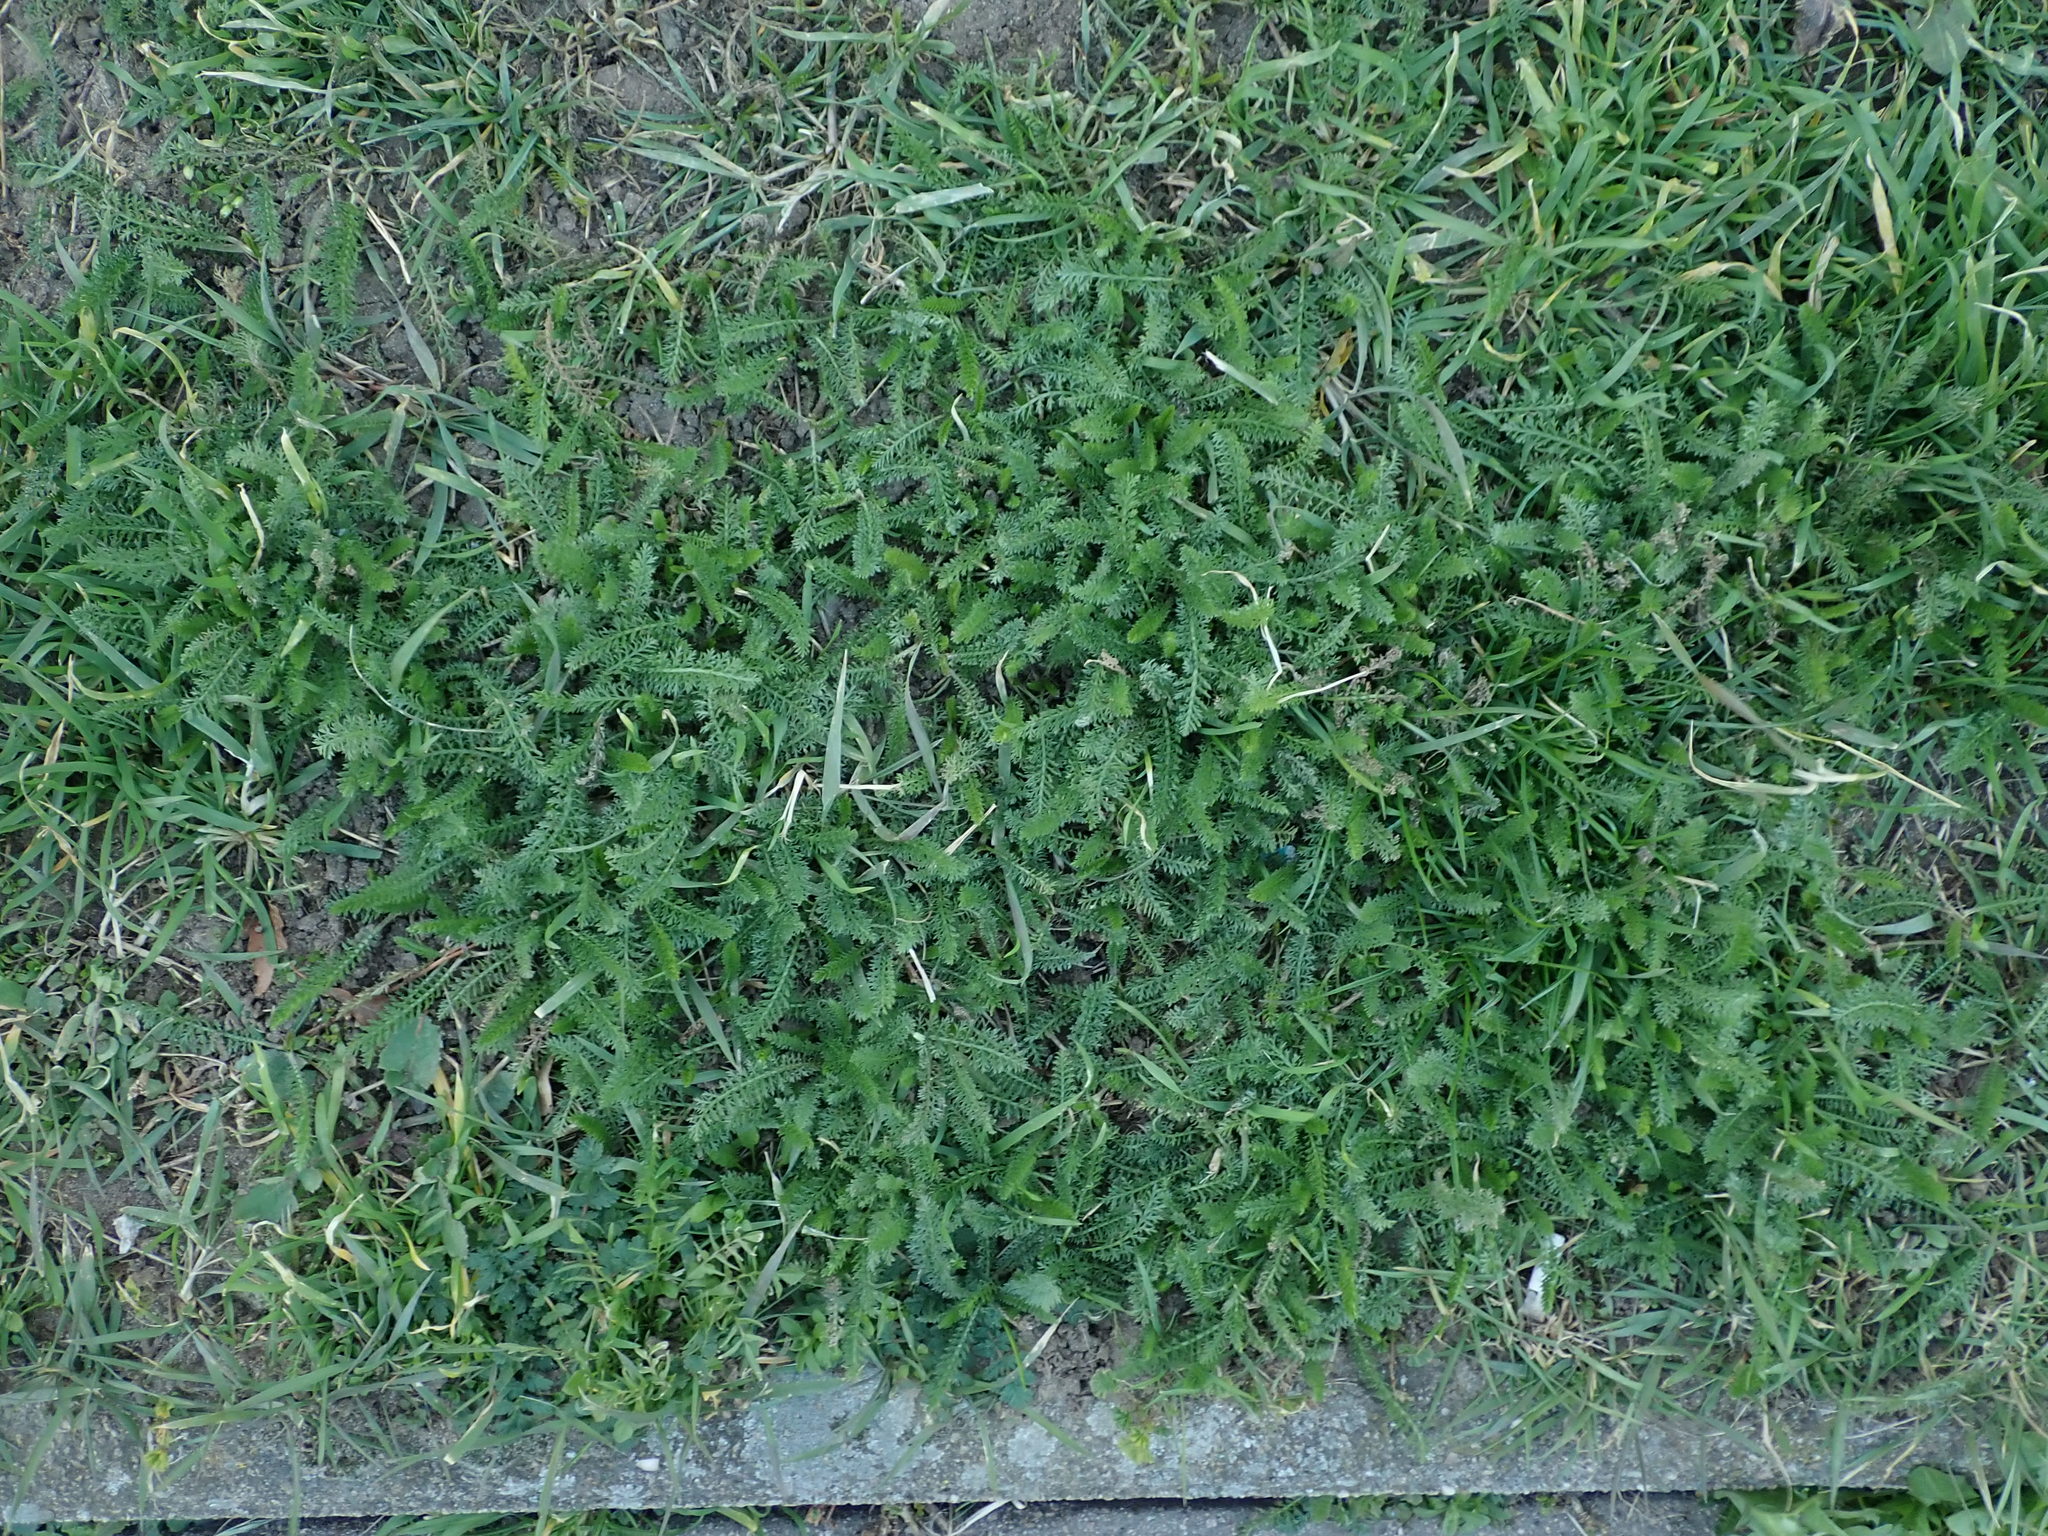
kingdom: Plantae
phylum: Tracheophyta
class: Magnoliopsida
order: Asterales
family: Asteraceae
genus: Achillea
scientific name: Achillea millefolium
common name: Yarrow
